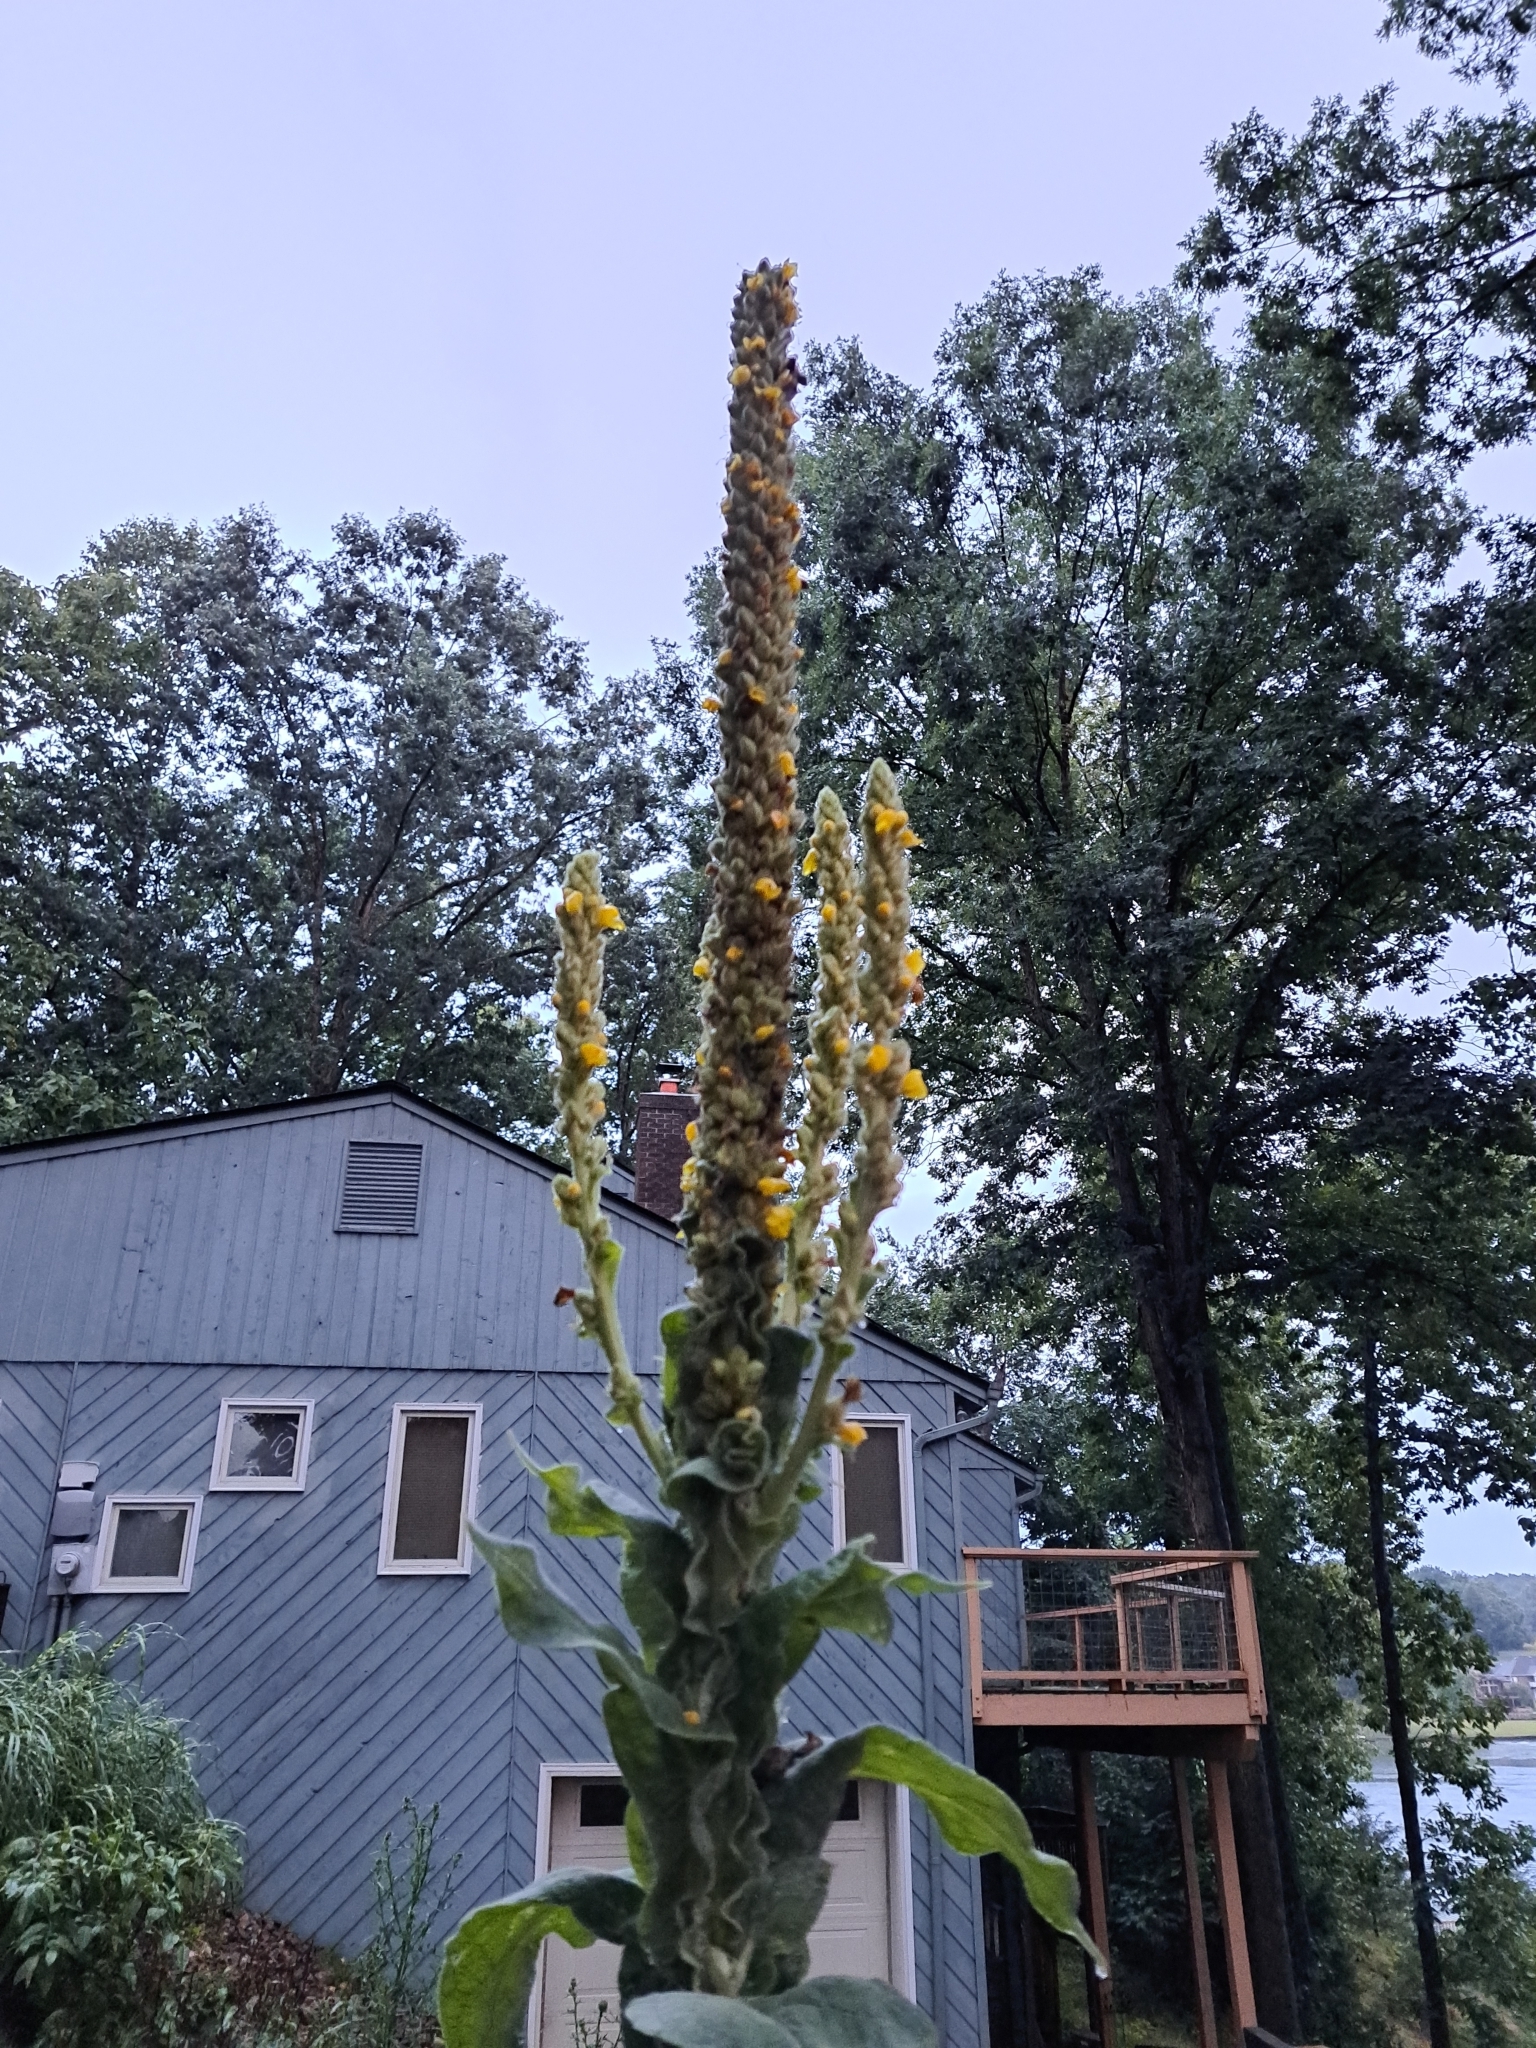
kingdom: Plantae
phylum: Tracheophyta
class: Magnoliopsida
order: Lamiales
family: Scrophulariaceae
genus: Verbascum
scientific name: Verbascum thapsus
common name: Common mullein
